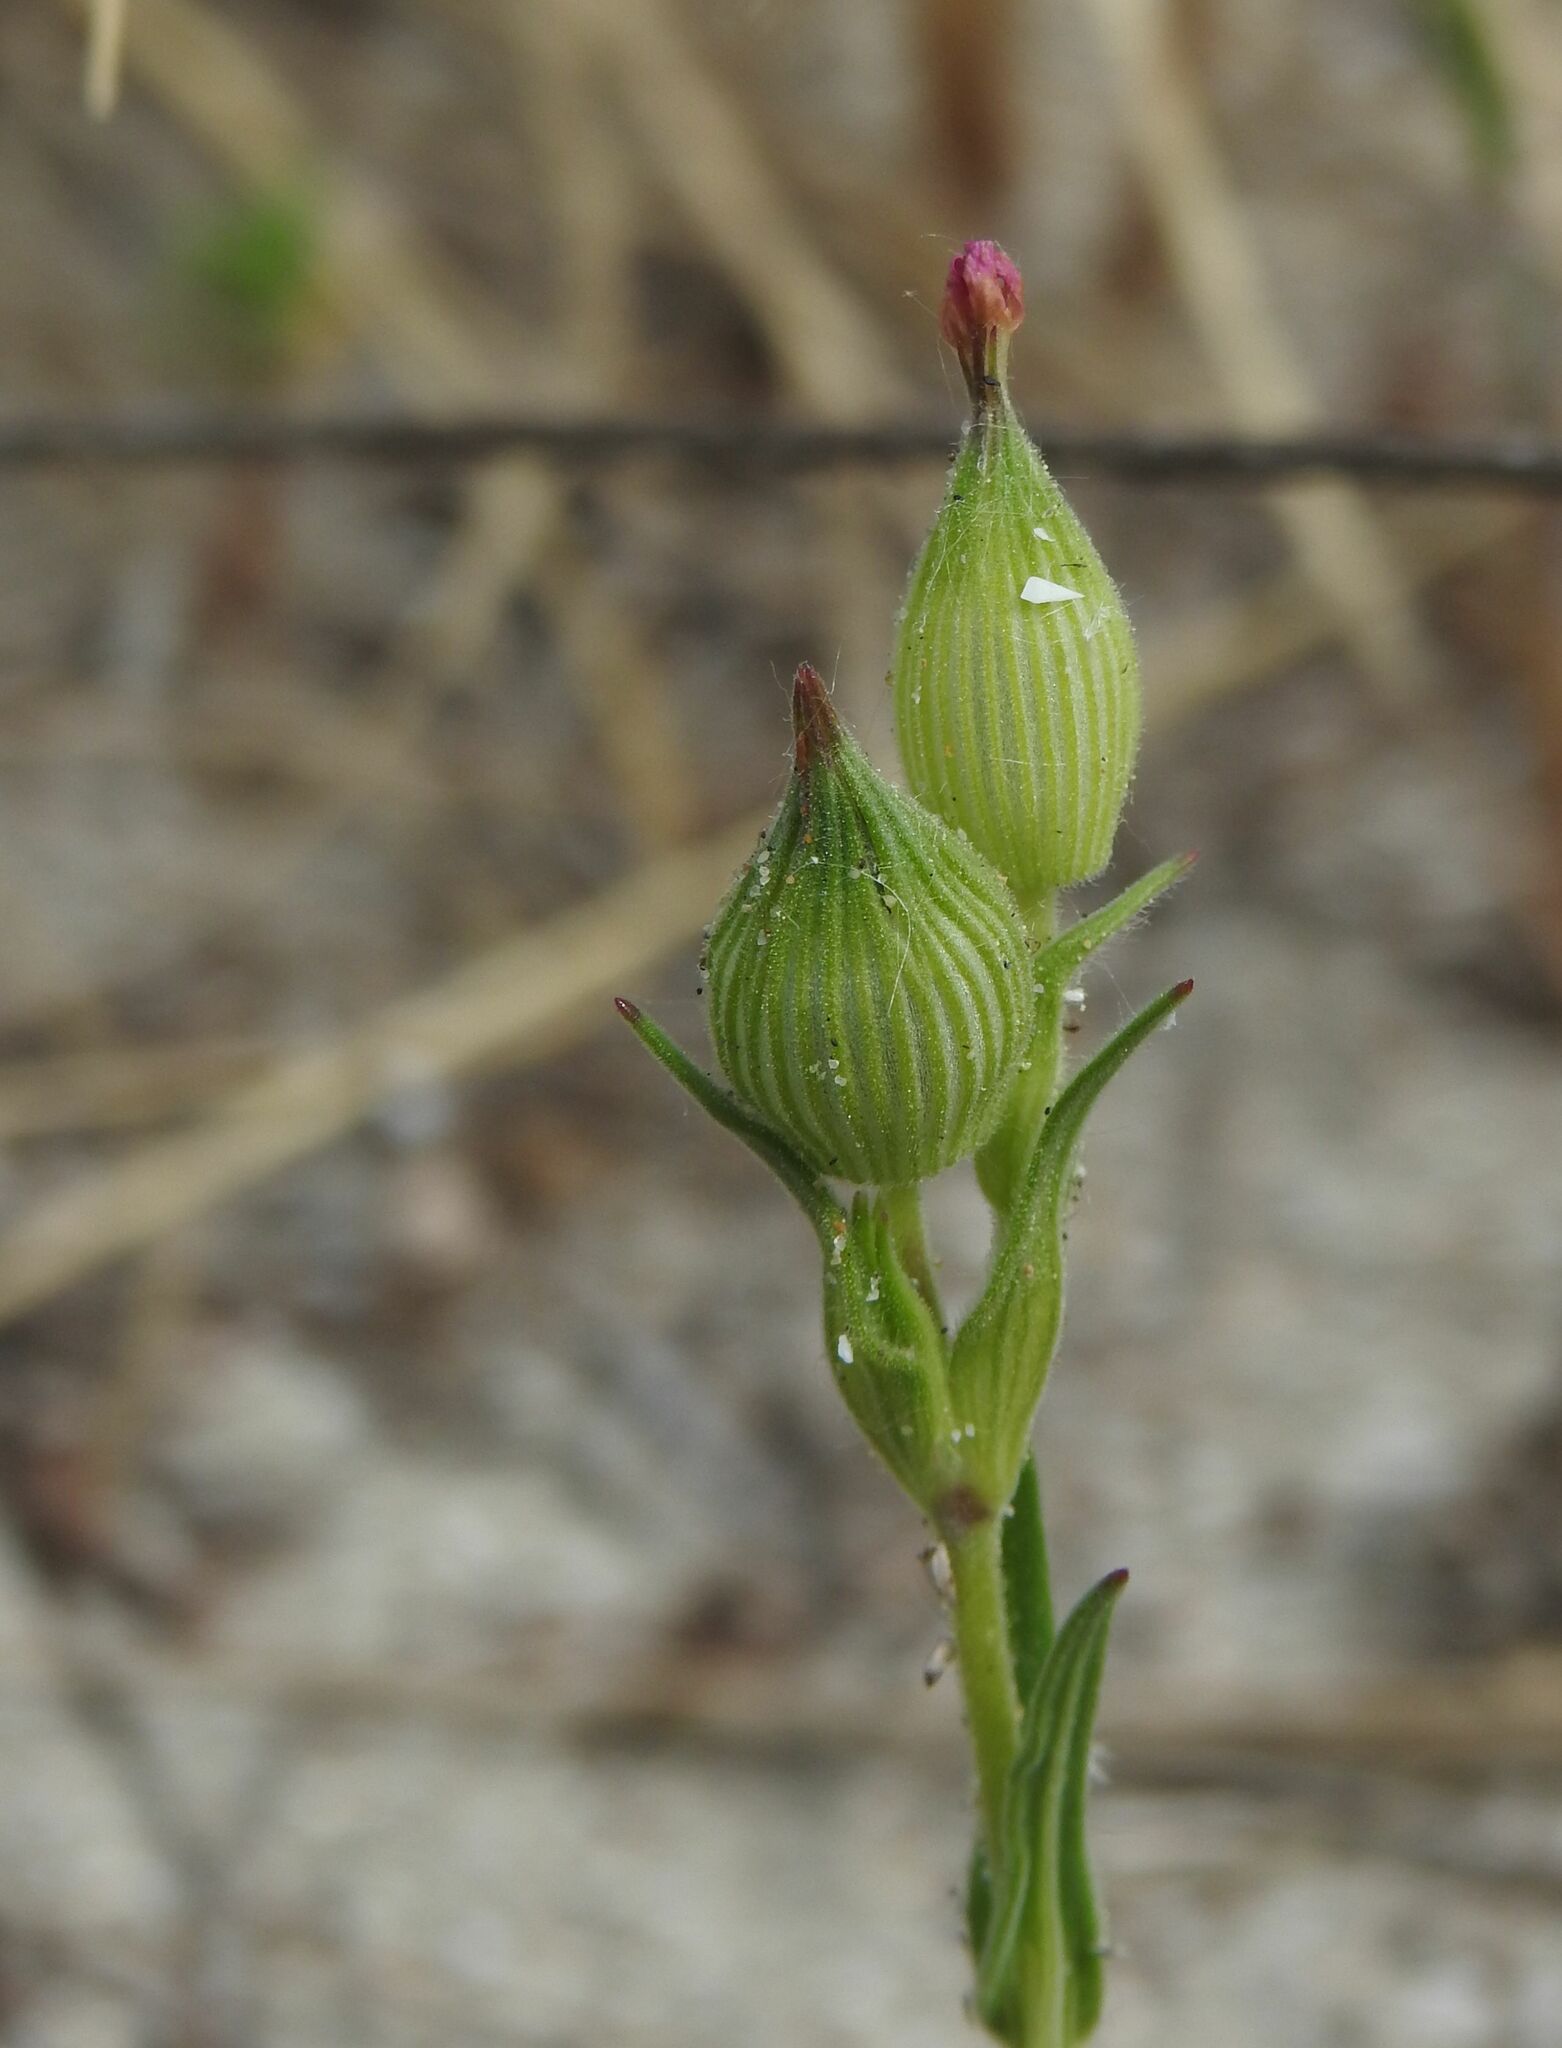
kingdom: Plantae
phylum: Tracheophyta
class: Magnoliopsida
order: Caryophyllales
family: Caryophyllaceae
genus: Silene
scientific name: Silene conica
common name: Sand catchfly
